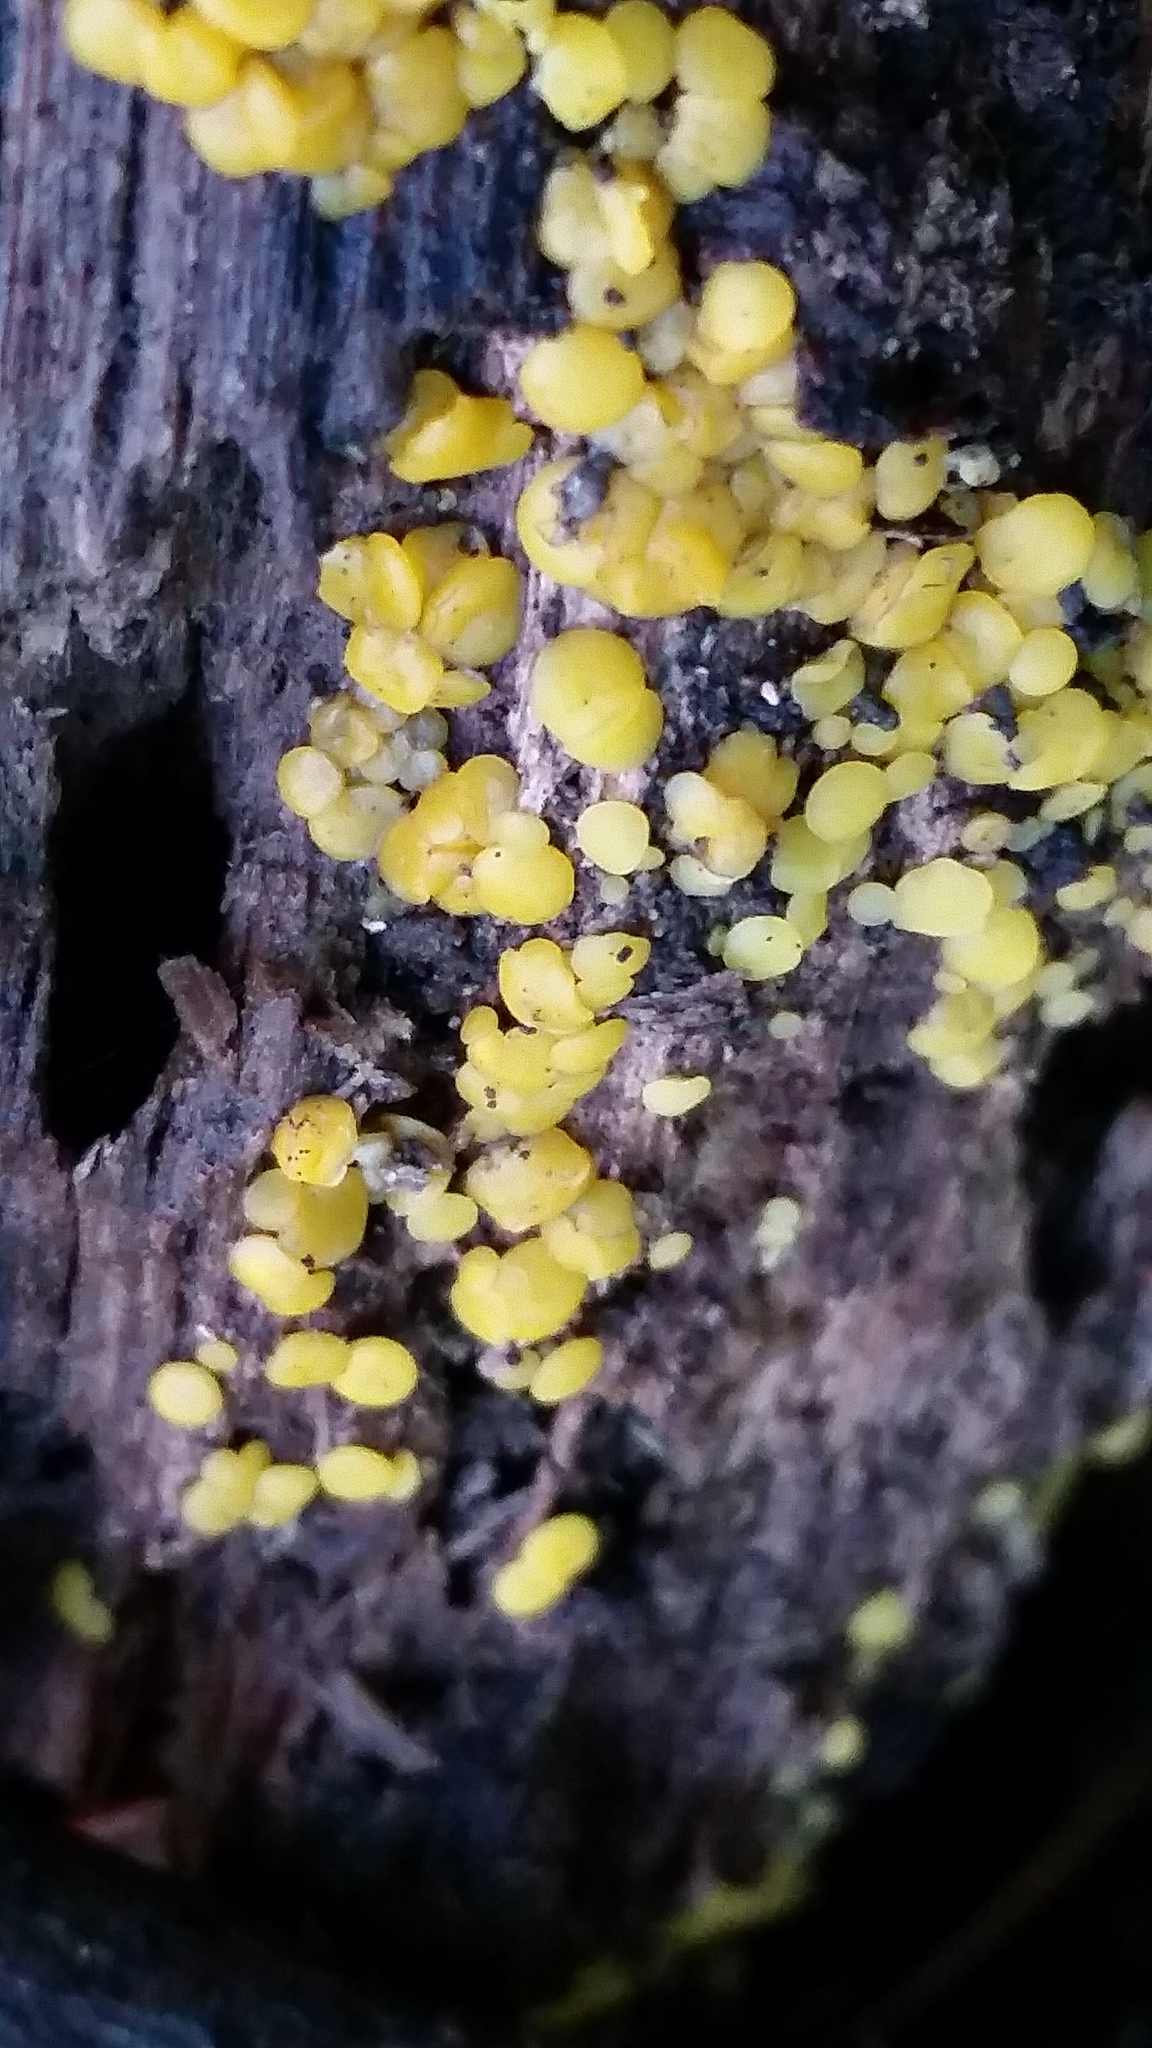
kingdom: Fungi
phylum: Ascomycota
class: Leotiomycetes
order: Helotiales
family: Pezizellaceae
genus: Calycina
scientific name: Calycina citrina
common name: Yellow fairy cups
